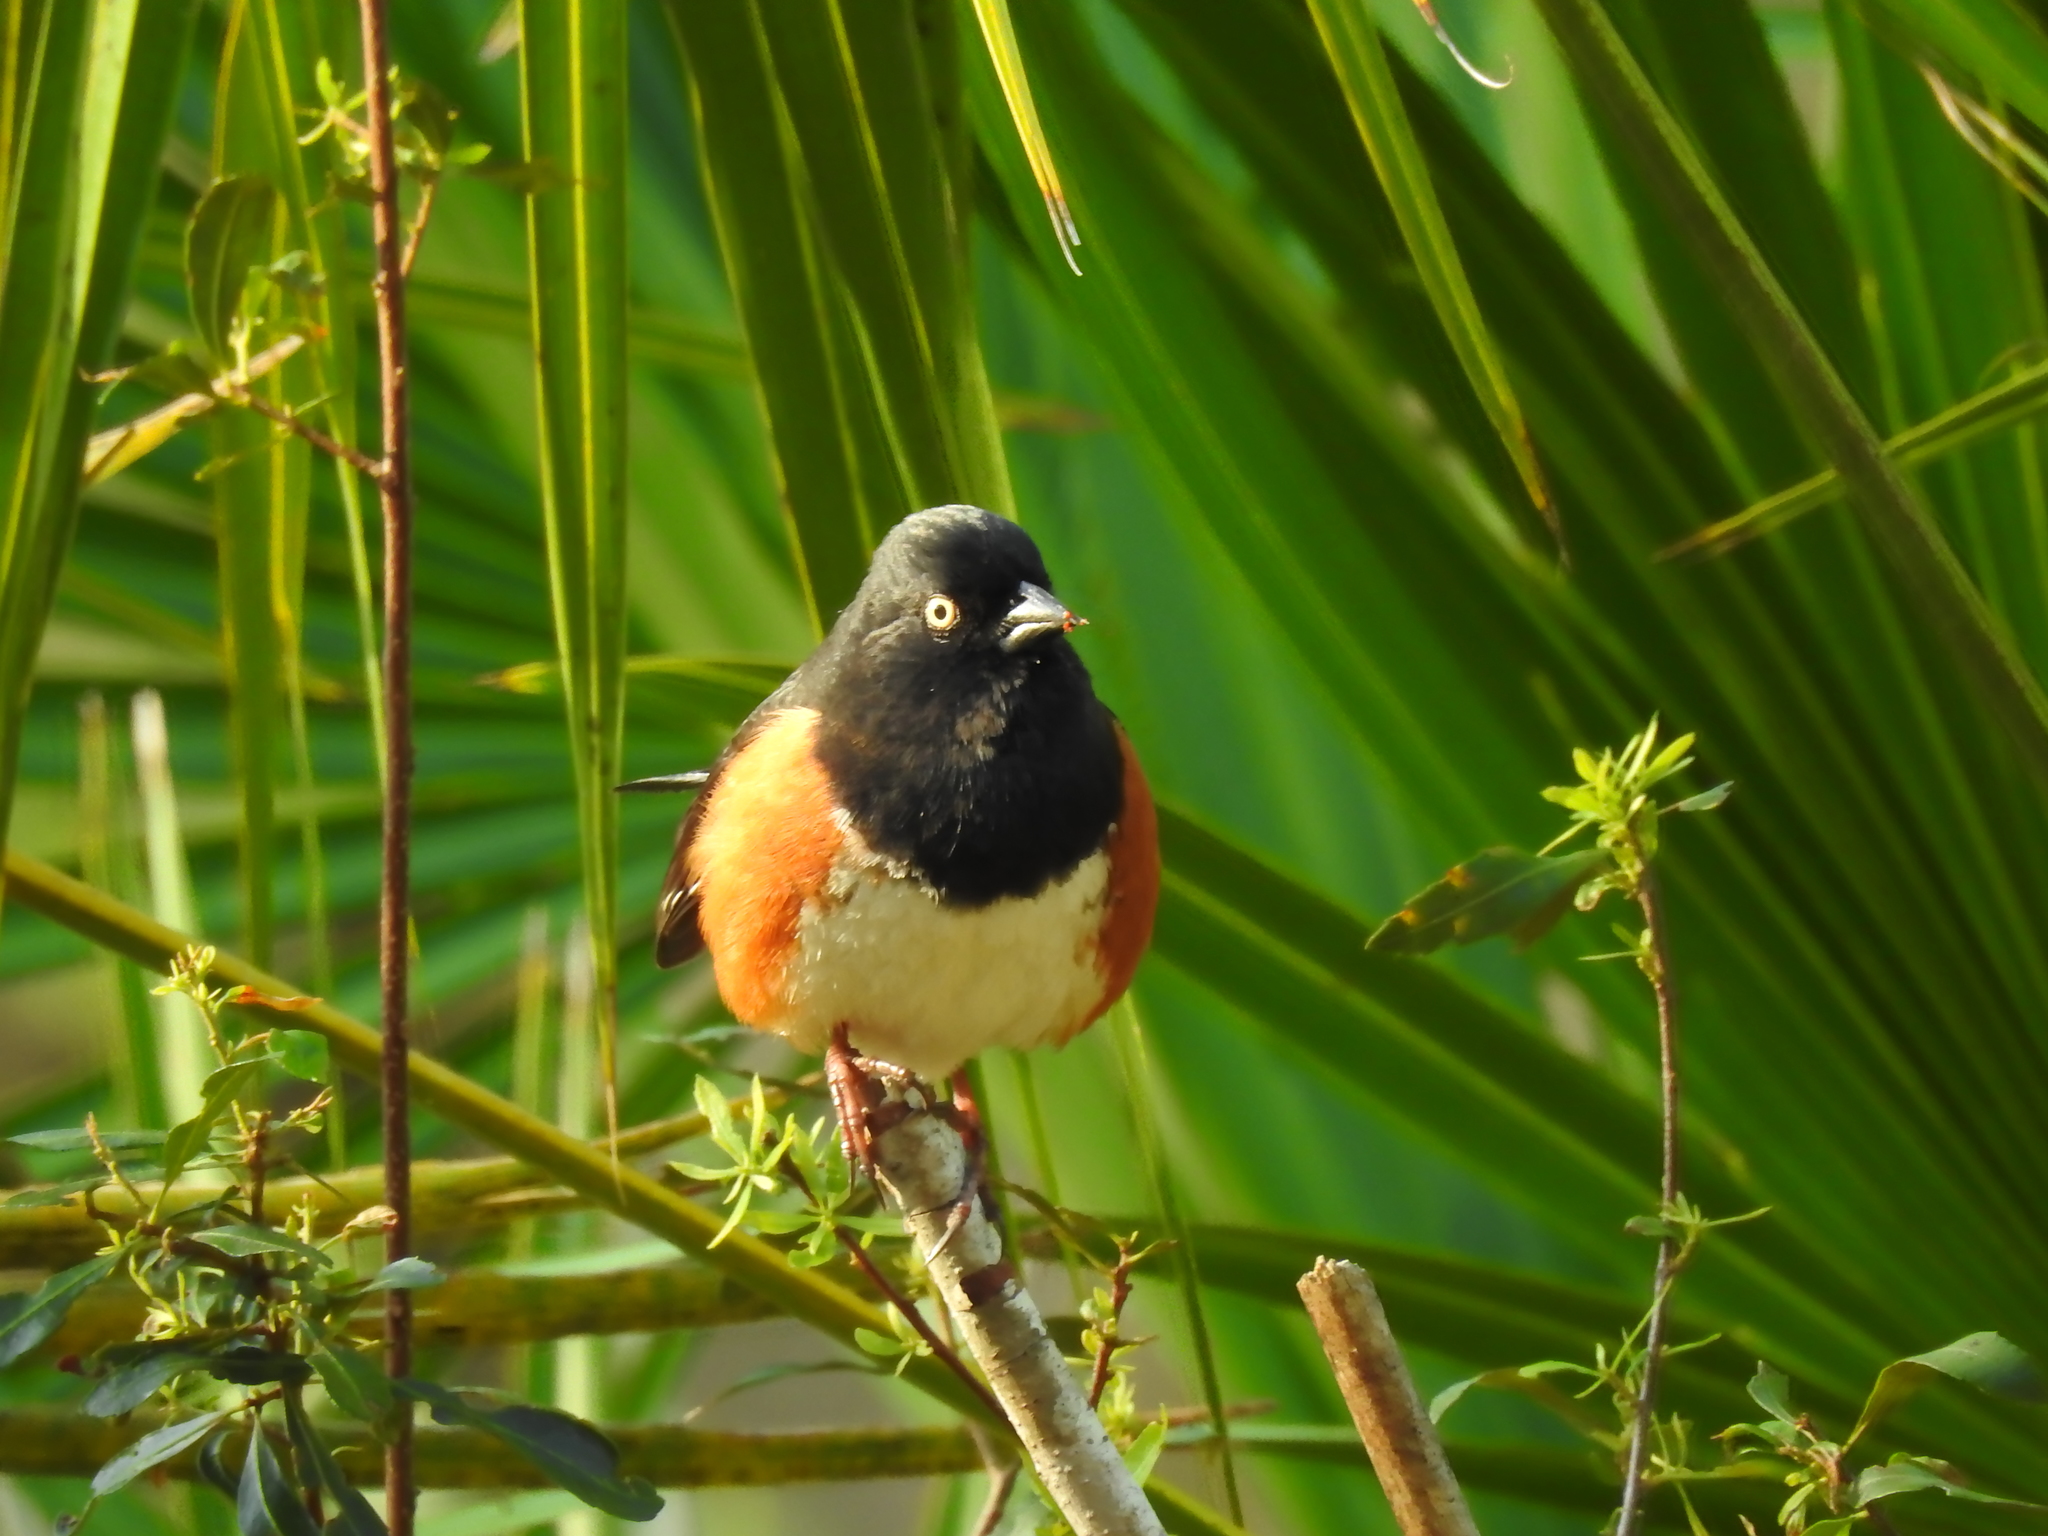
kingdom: Animalia
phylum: Chordata
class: Aves
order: Passeriformes
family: Passerellidae
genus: Pipilo
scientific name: Pipilo erythrophthalmus
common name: Eastern towhee
